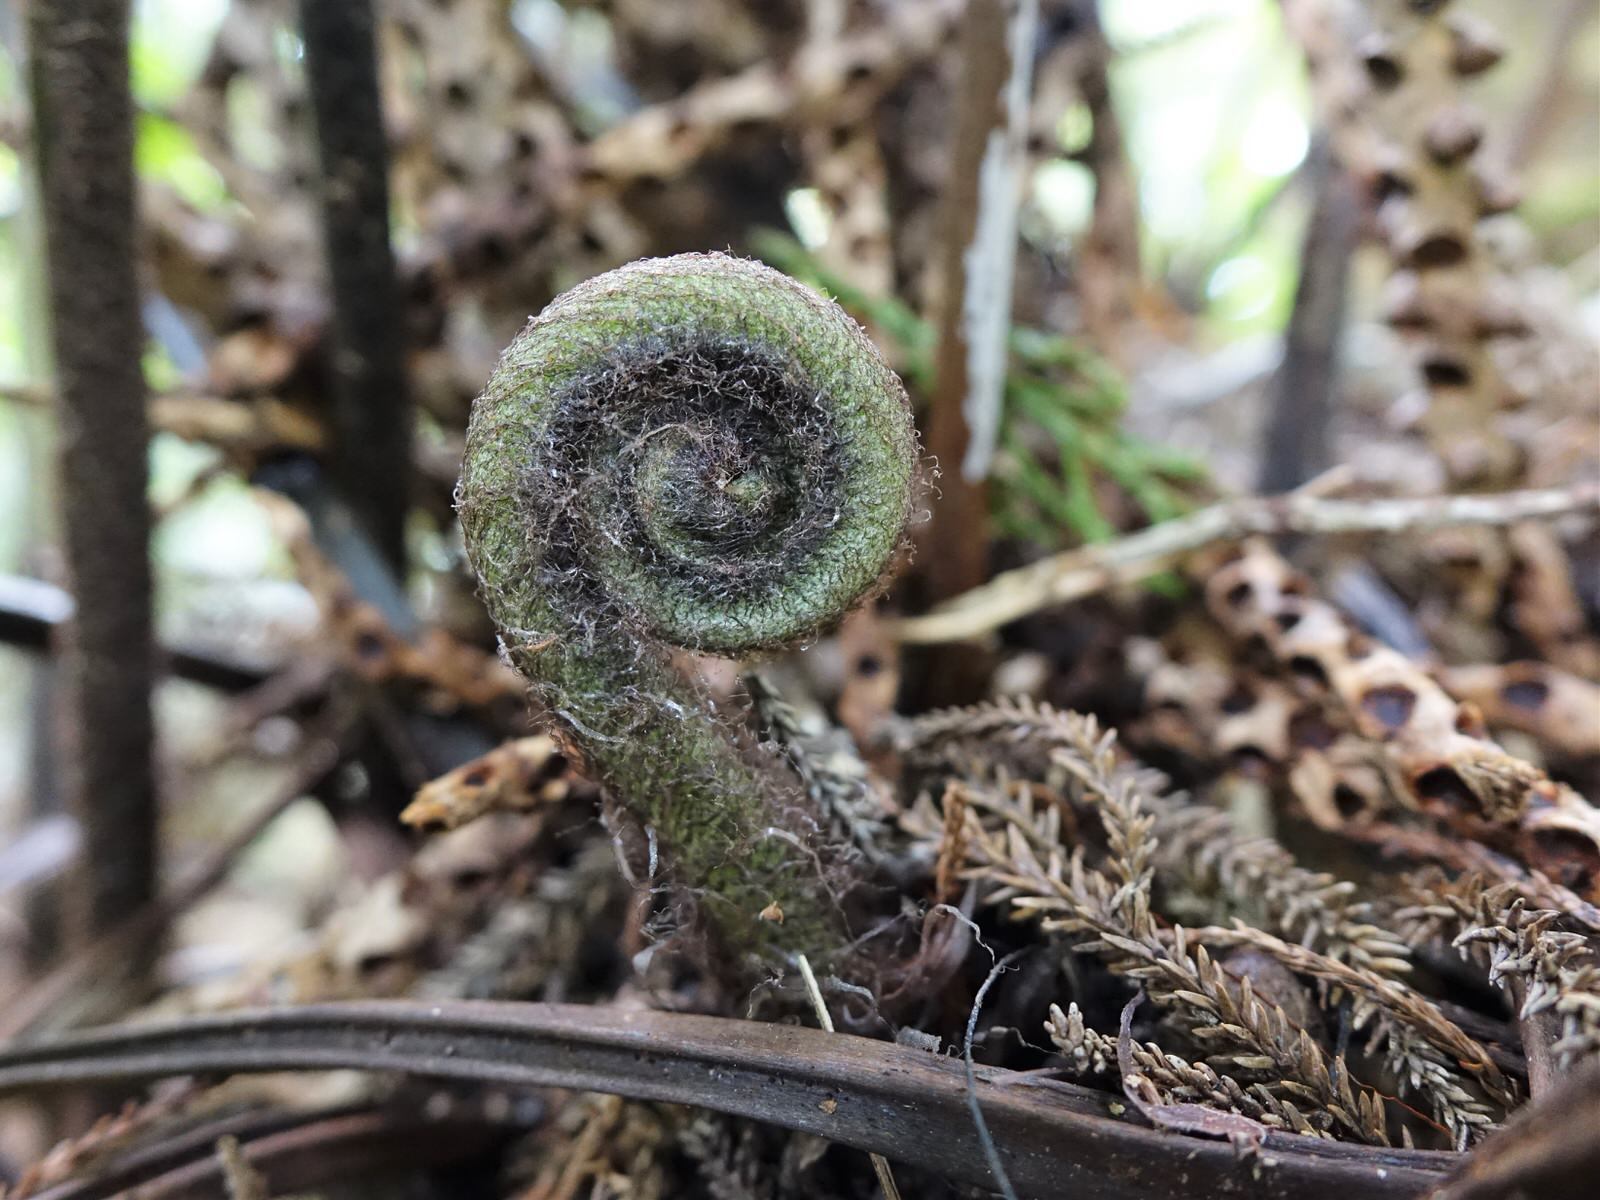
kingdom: Plantae
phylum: Tracheophyta
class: Polypodiopsida
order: Polypodiales
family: Aspleniaceae
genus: Asplenium
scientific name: Asplenium oblongifolium
